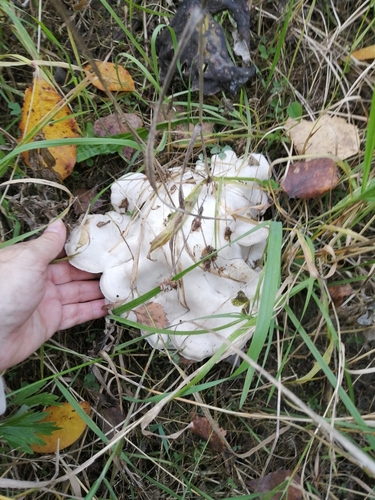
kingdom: Fungi
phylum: Basidiomycota
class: Agaricomycetes
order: Agaricales
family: Tricholomataceae
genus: Leucocybe
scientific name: Leucocybe connata
